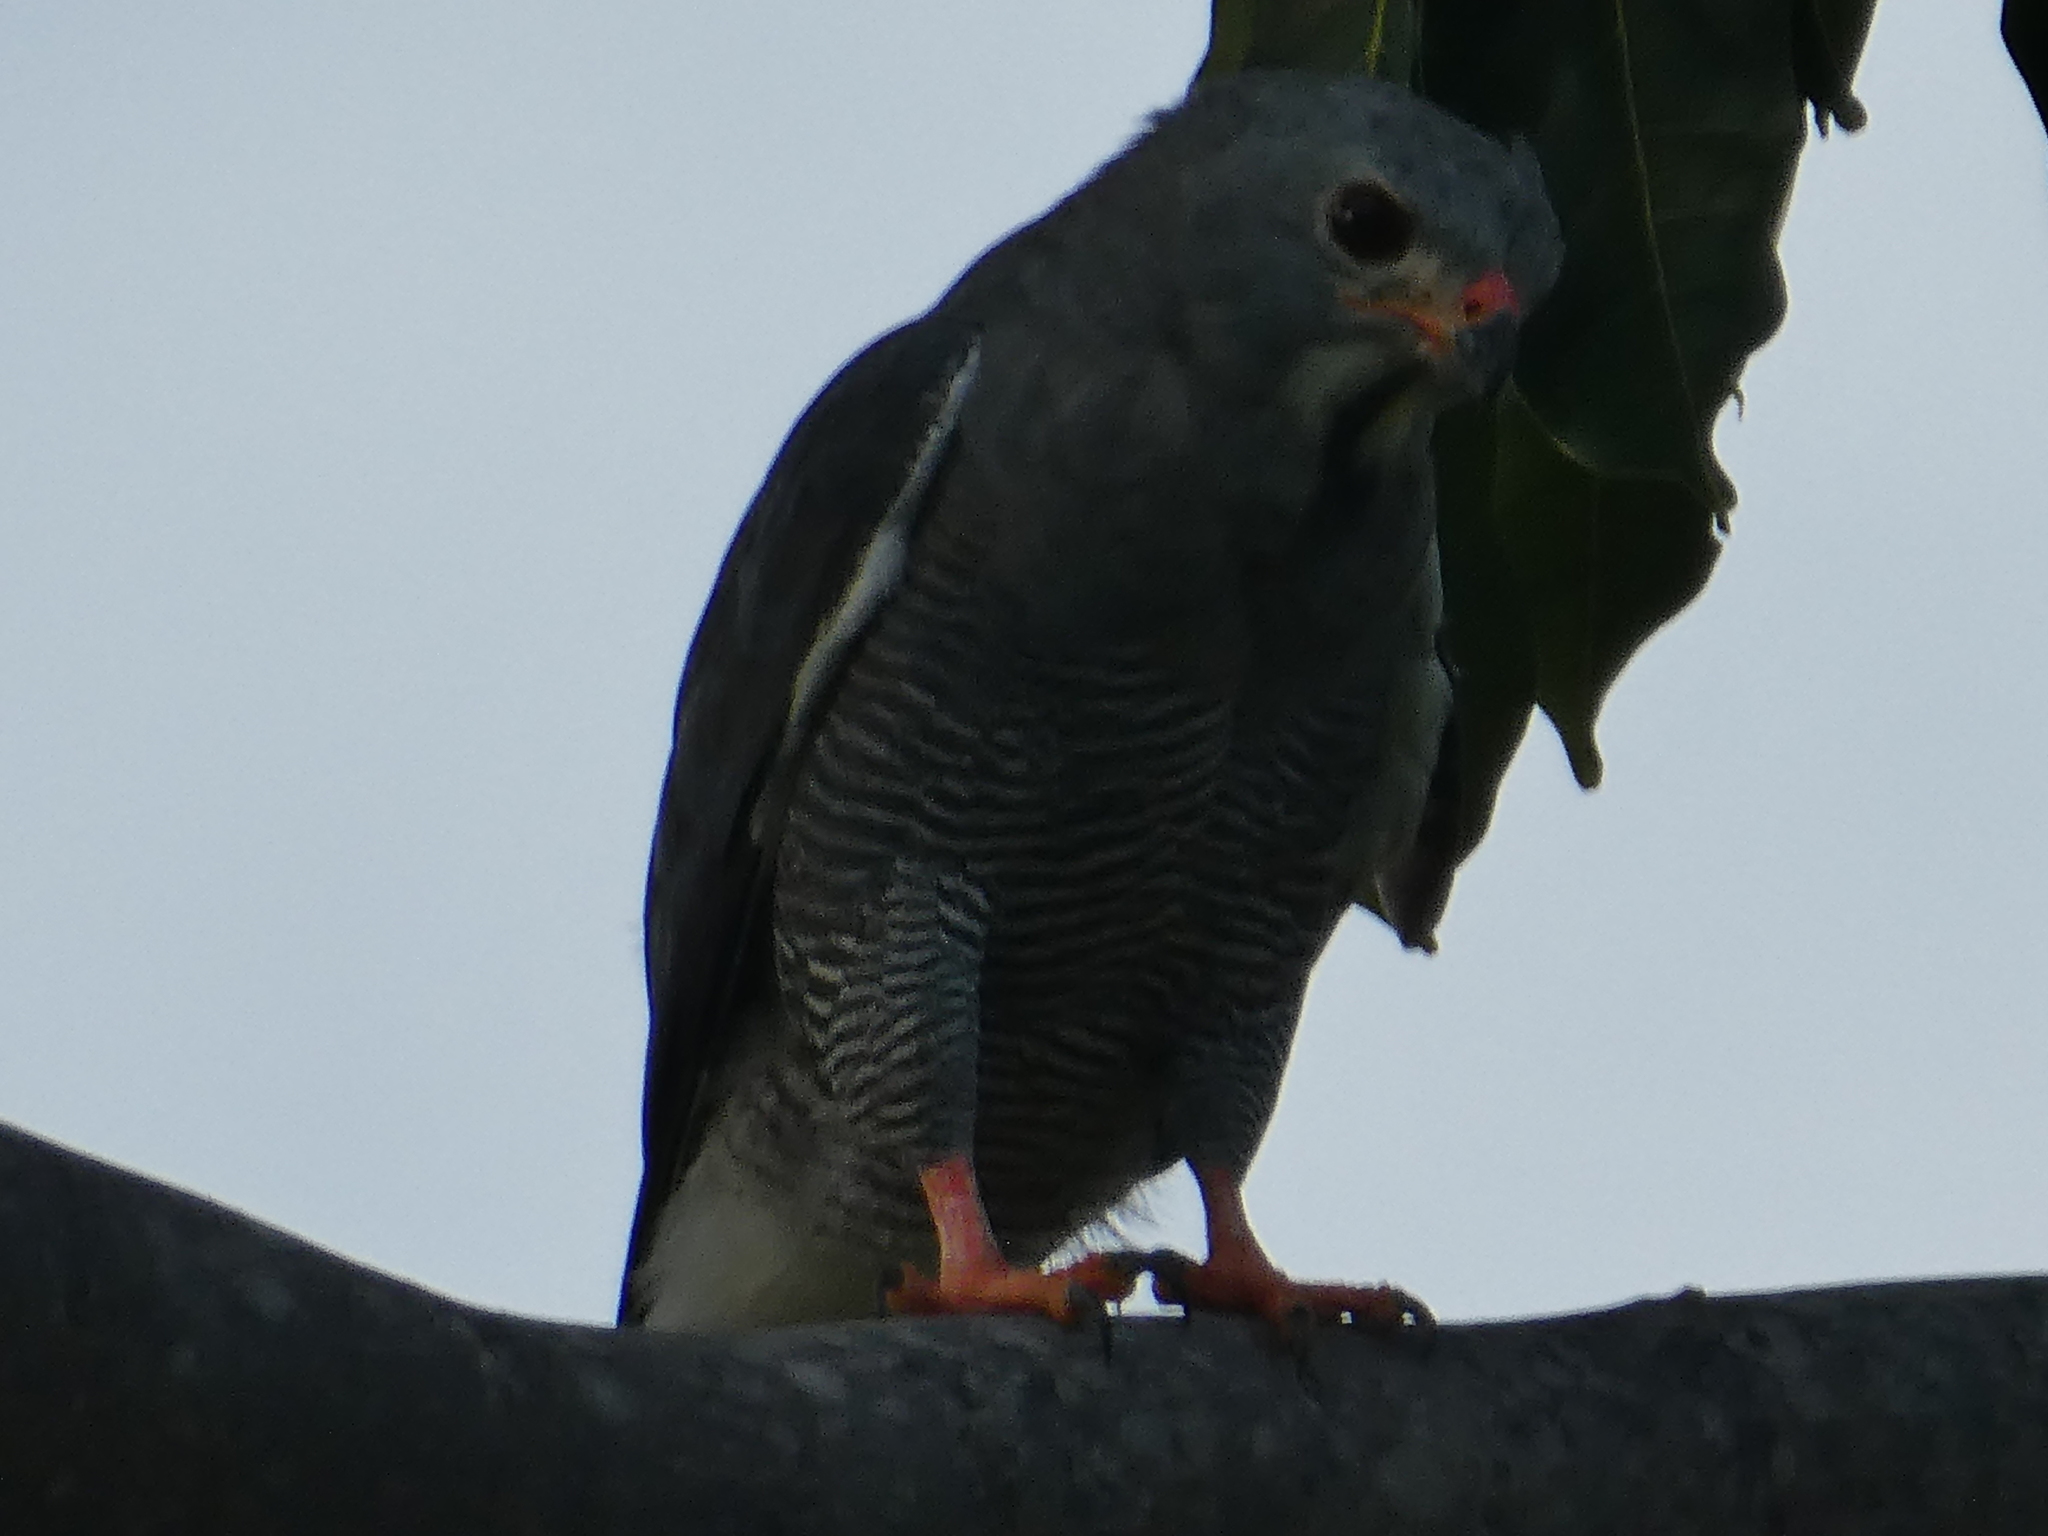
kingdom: Animalia
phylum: Chordata
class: Aves
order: Accipitriformes
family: Accipitridae
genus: Kaupifalco
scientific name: Kaupifalco monogrammicus
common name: Lizard buzzard
